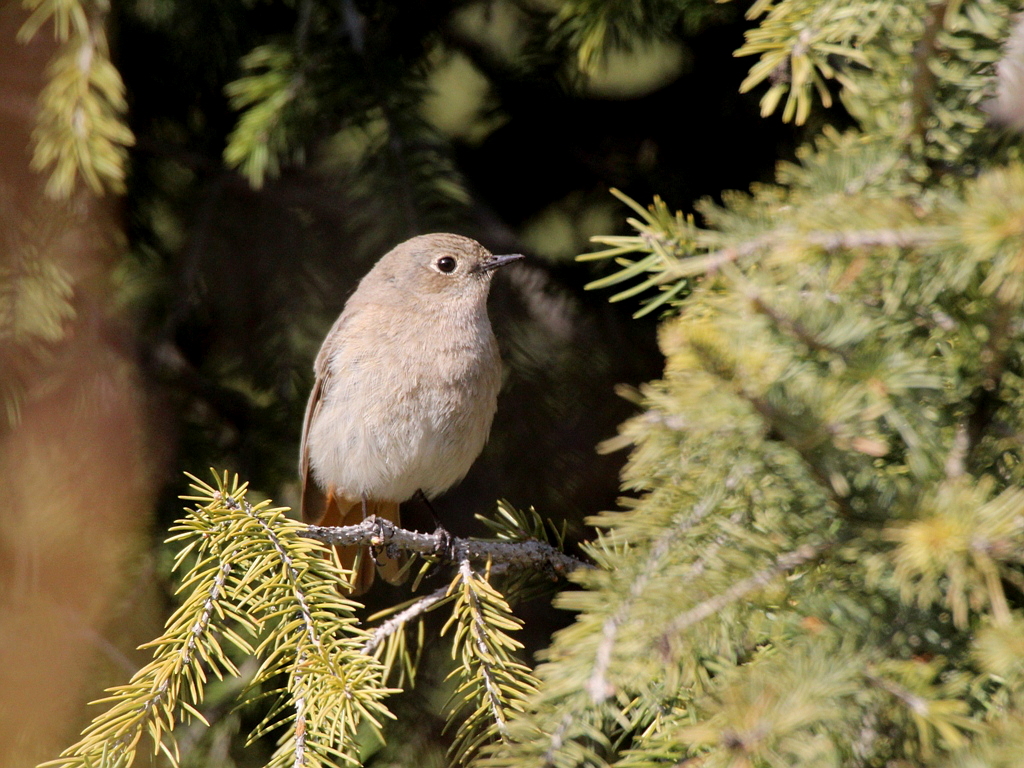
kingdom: Animalia
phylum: Chordata
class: Aves
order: Passeriformes
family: Muscicapidae
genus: Phoenicurus
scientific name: Phoenicurus erythronotus
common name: Eversmann's redstart
